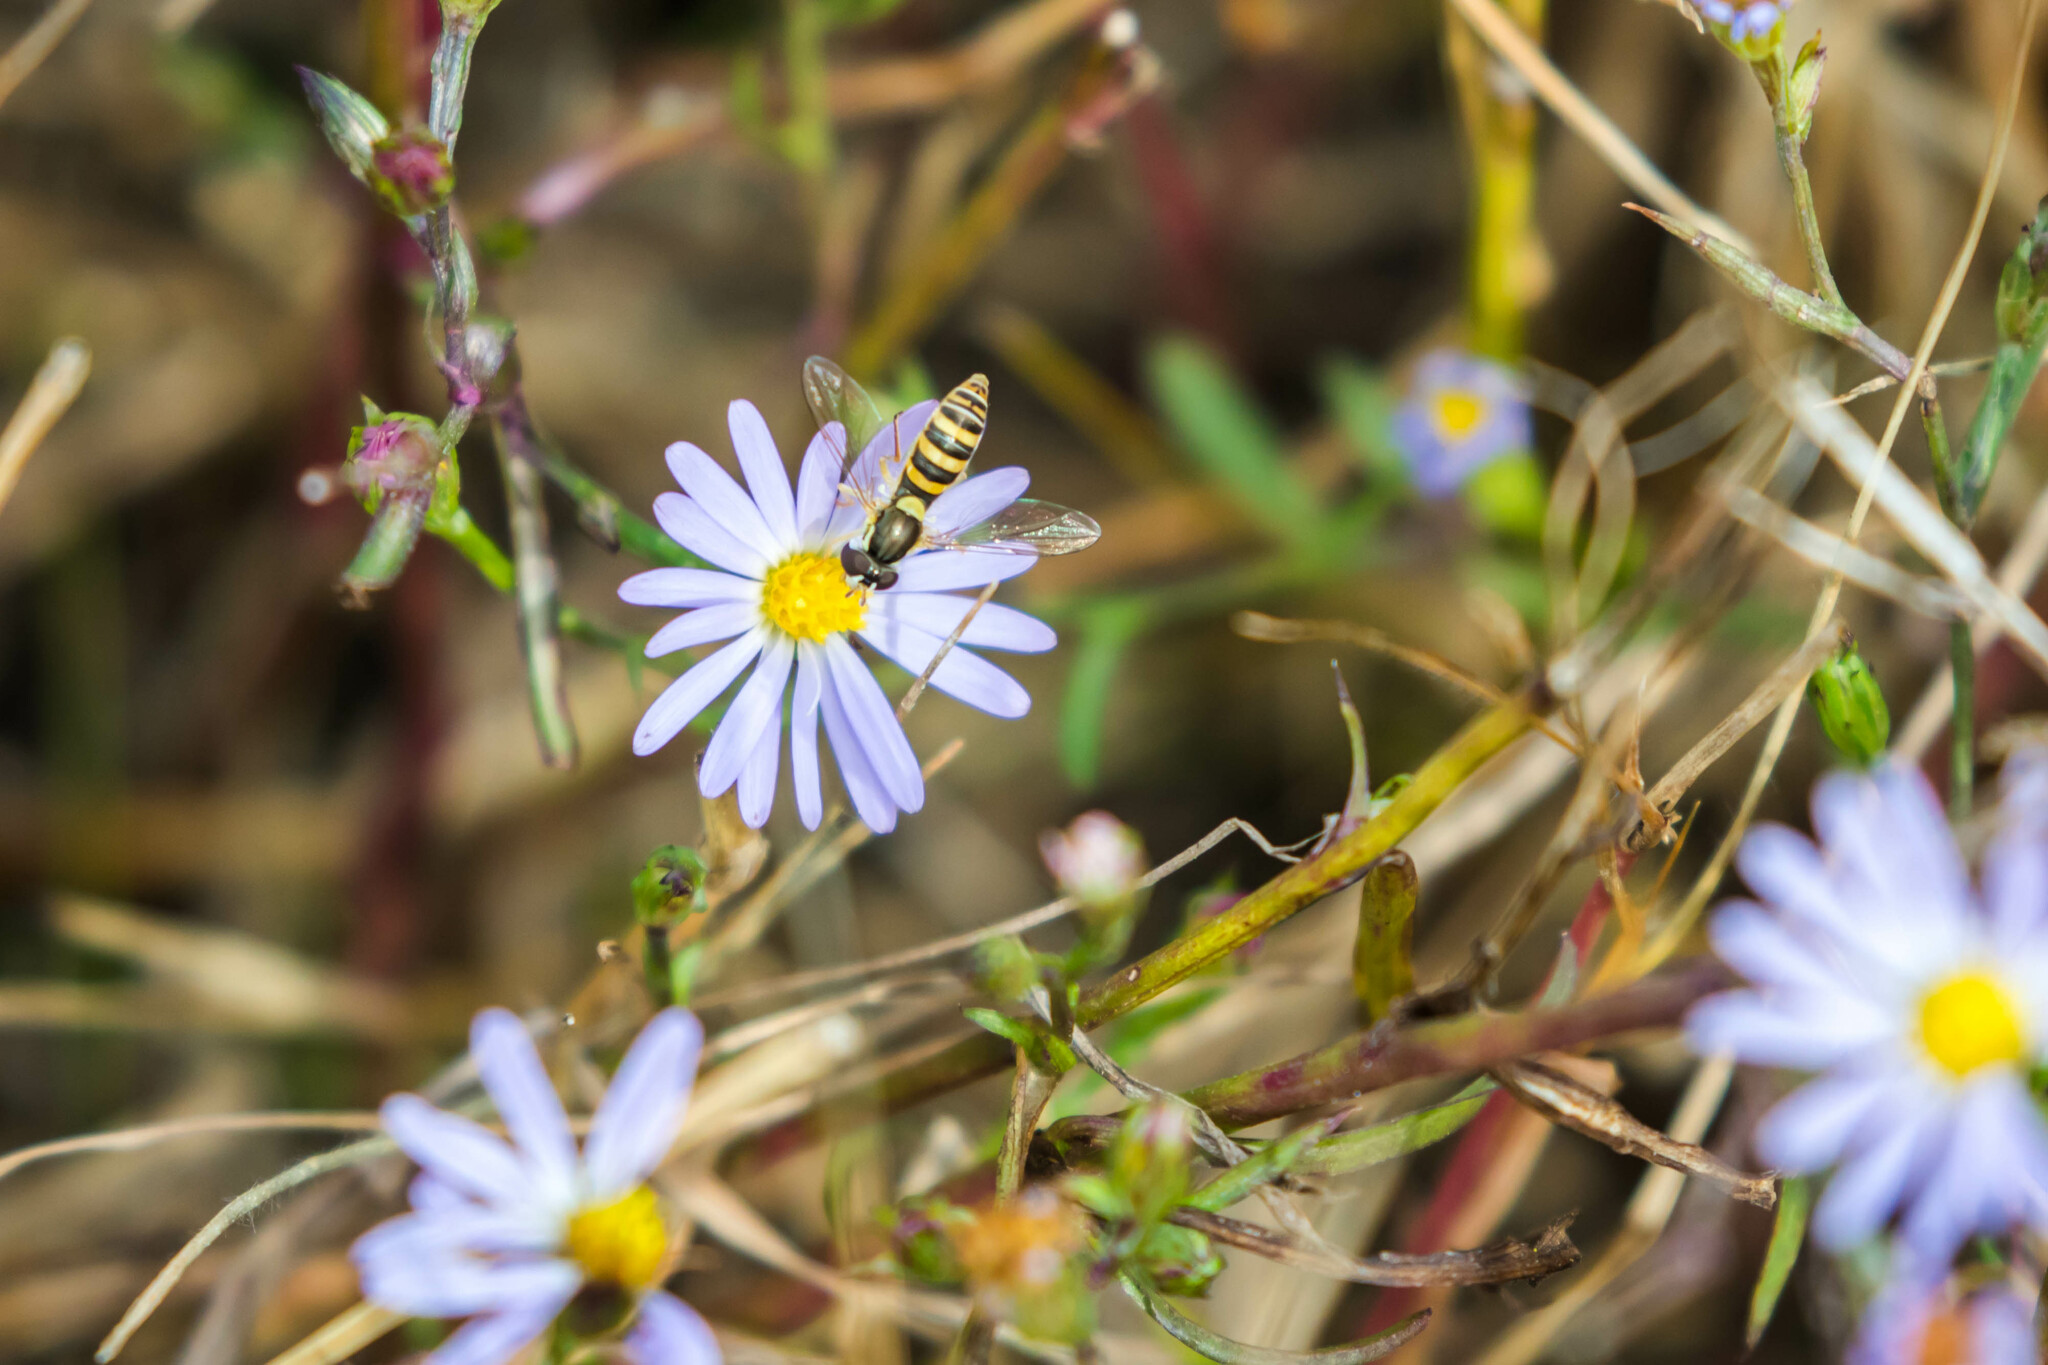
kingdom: Animalia
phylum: Arthropoda
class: Insecta
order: Diptera
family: Syrphidae
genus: Sphaerophoria
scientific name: Sphaerophoria contigua
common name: Tufted globetail
